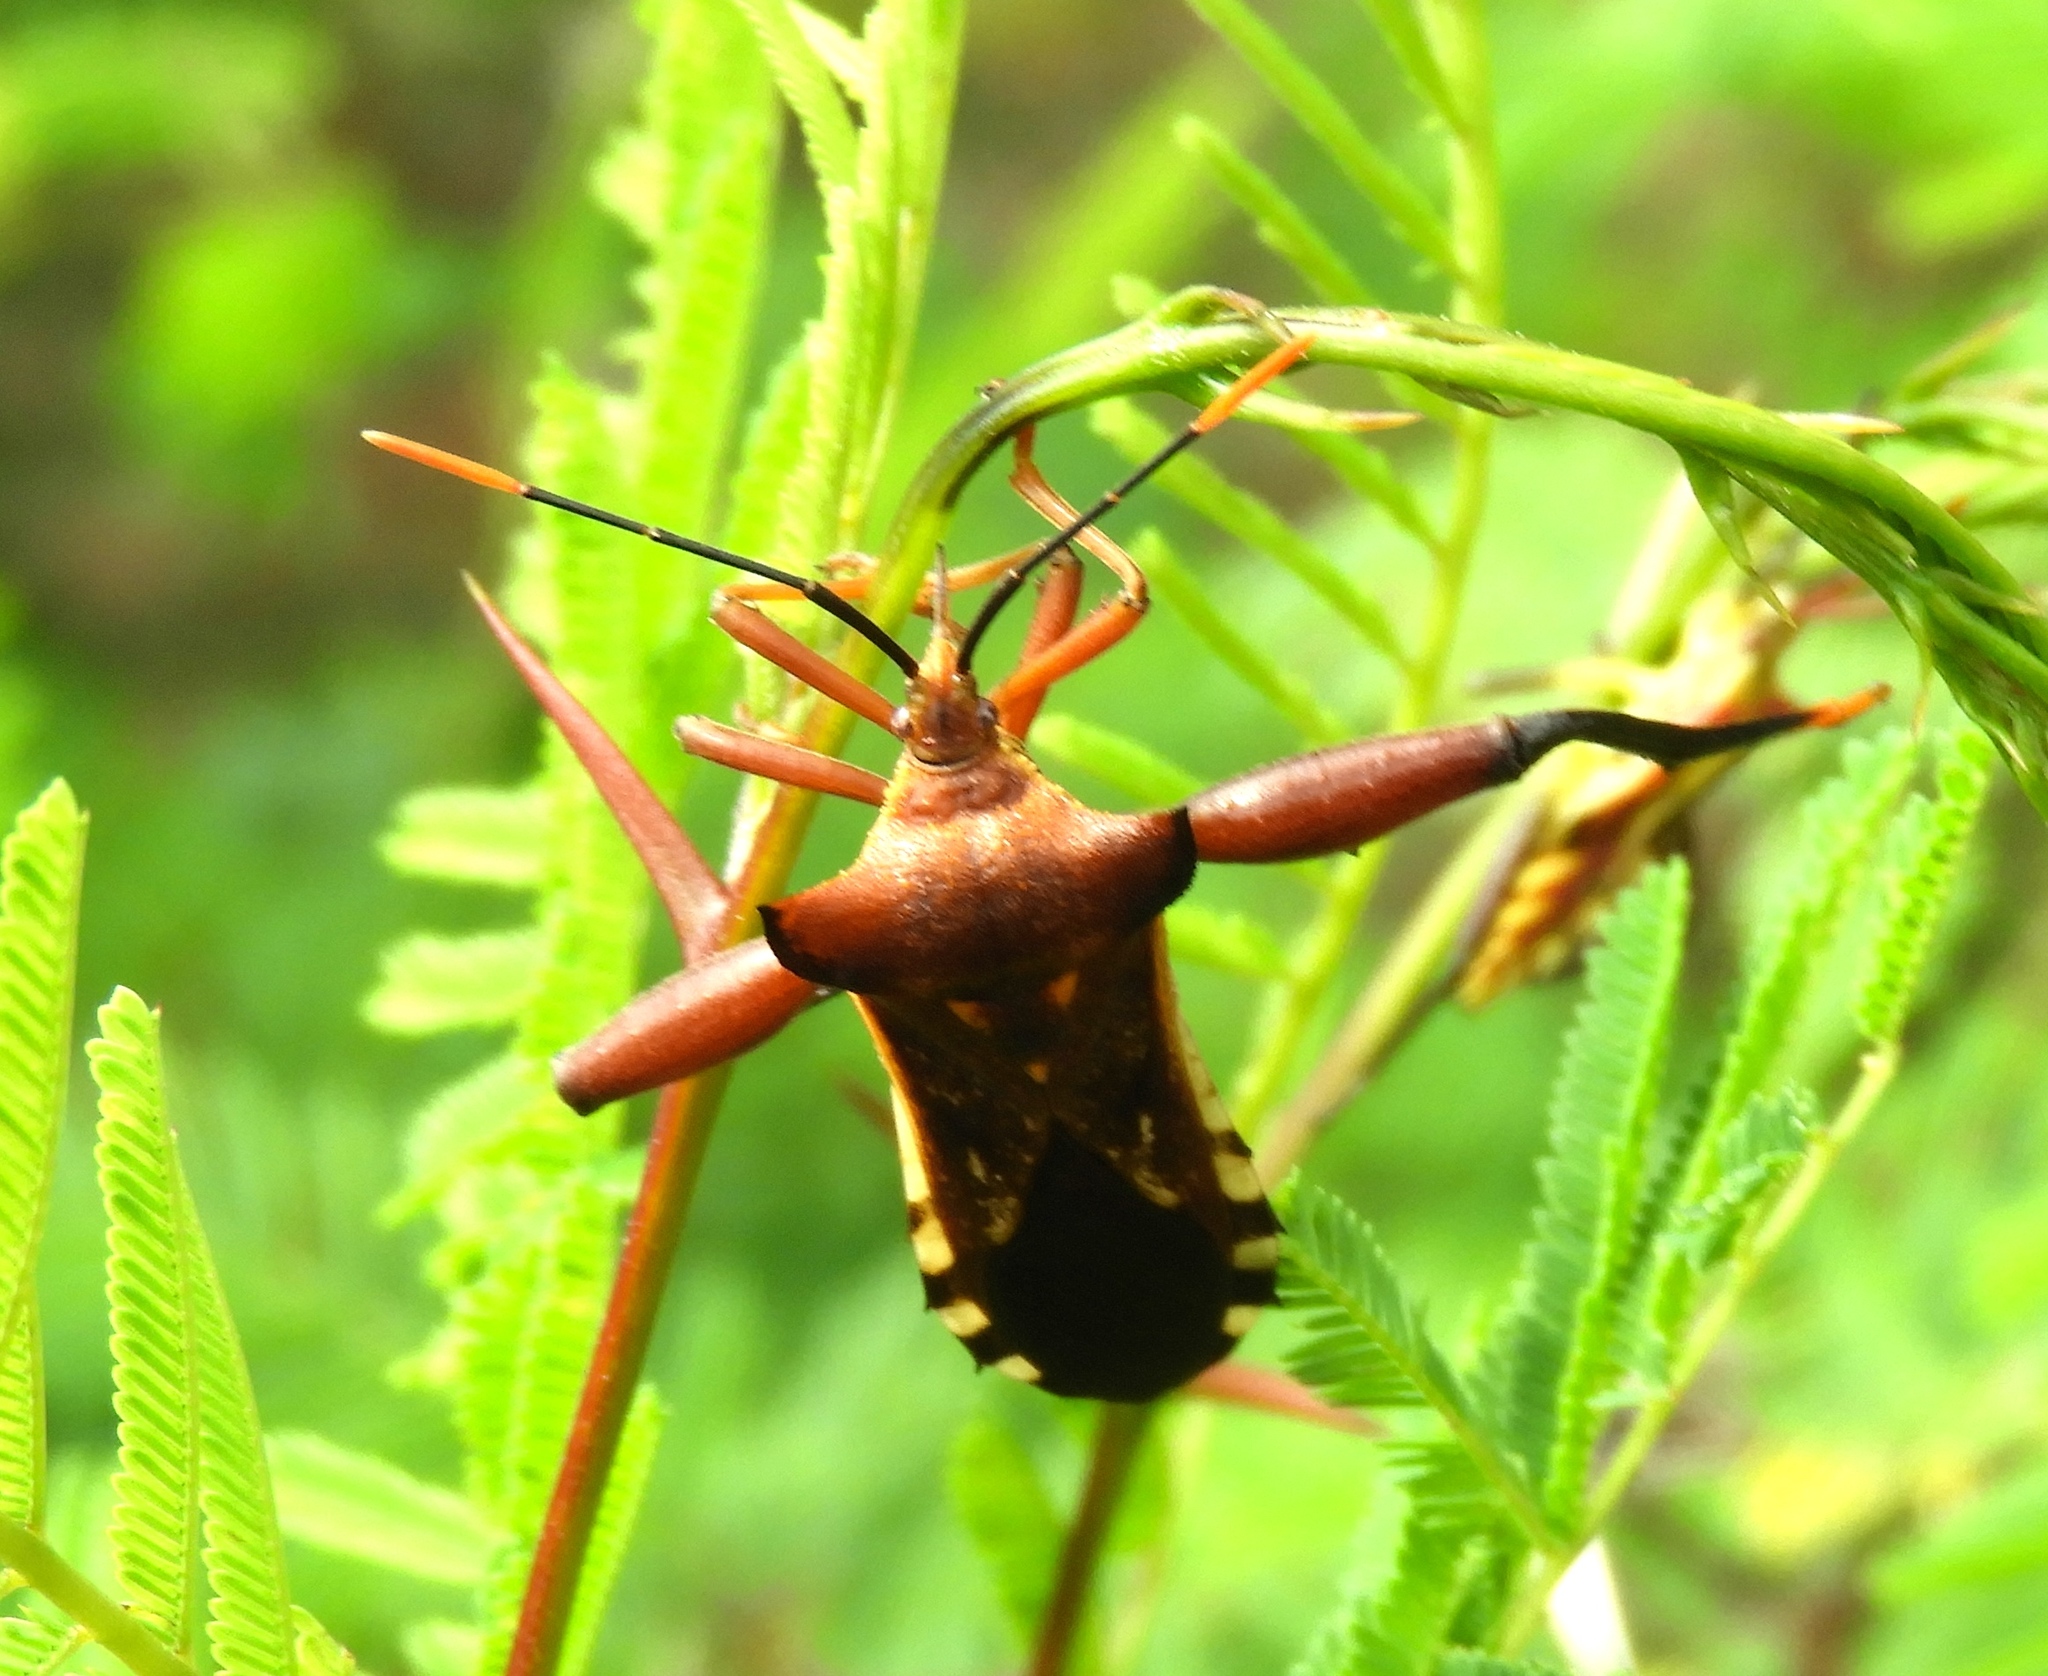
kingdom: Animalia
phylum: Arthropoda
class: Insecta
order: Hemiptera
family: Coreidae
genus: Mozena
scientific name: Mozena
